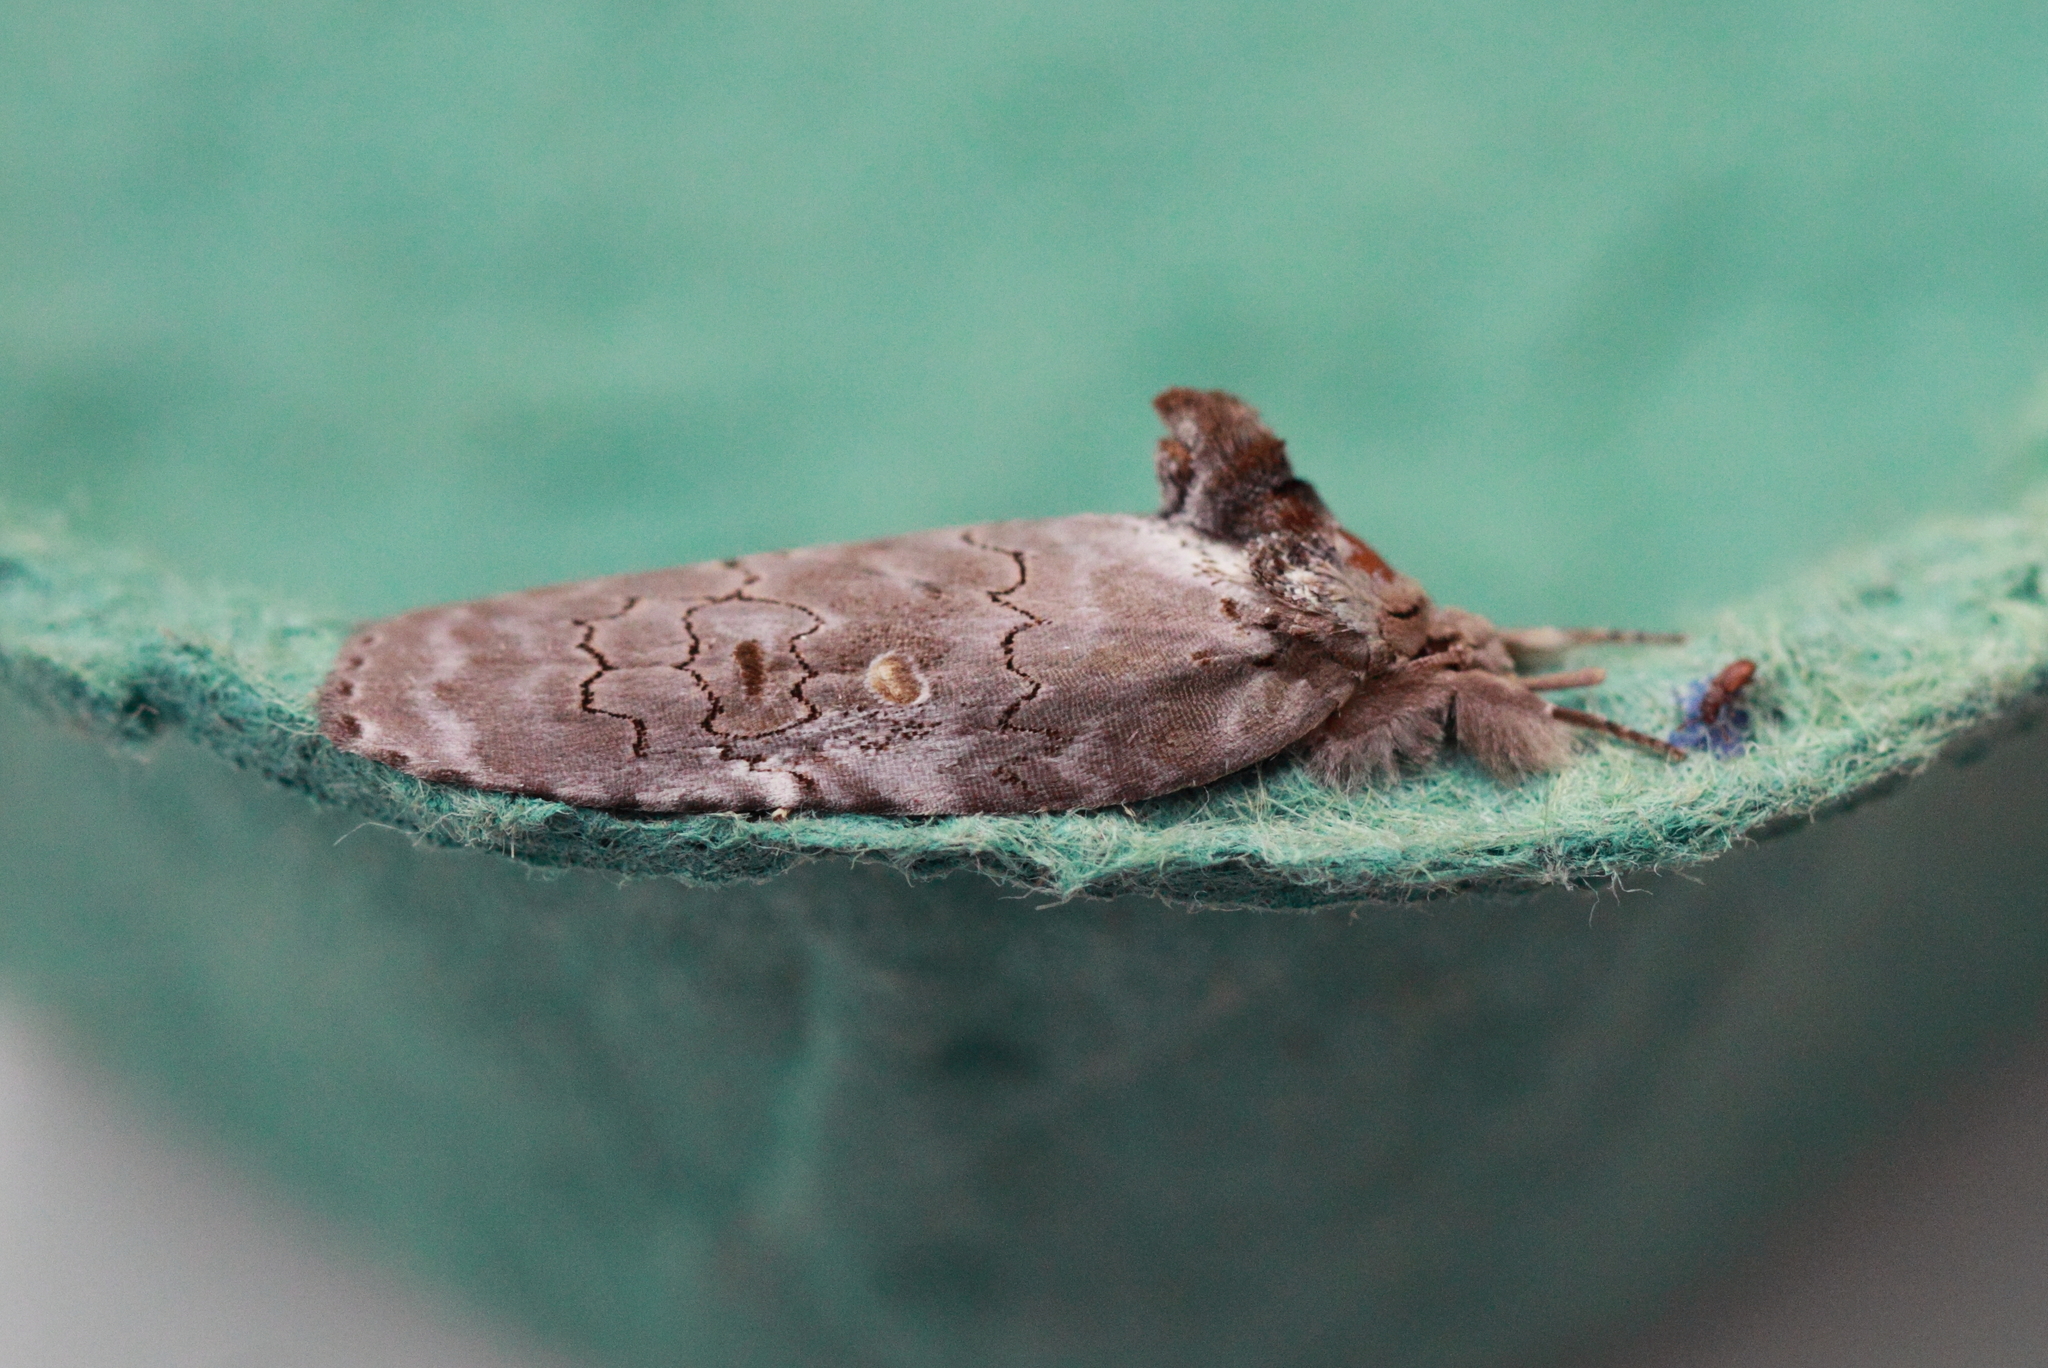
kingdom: Animalia
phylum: Arthropoda
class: Insecta
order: Lepidoptera
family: Noctuidae
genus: Ochthophora
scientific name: Ochthophora sericina
